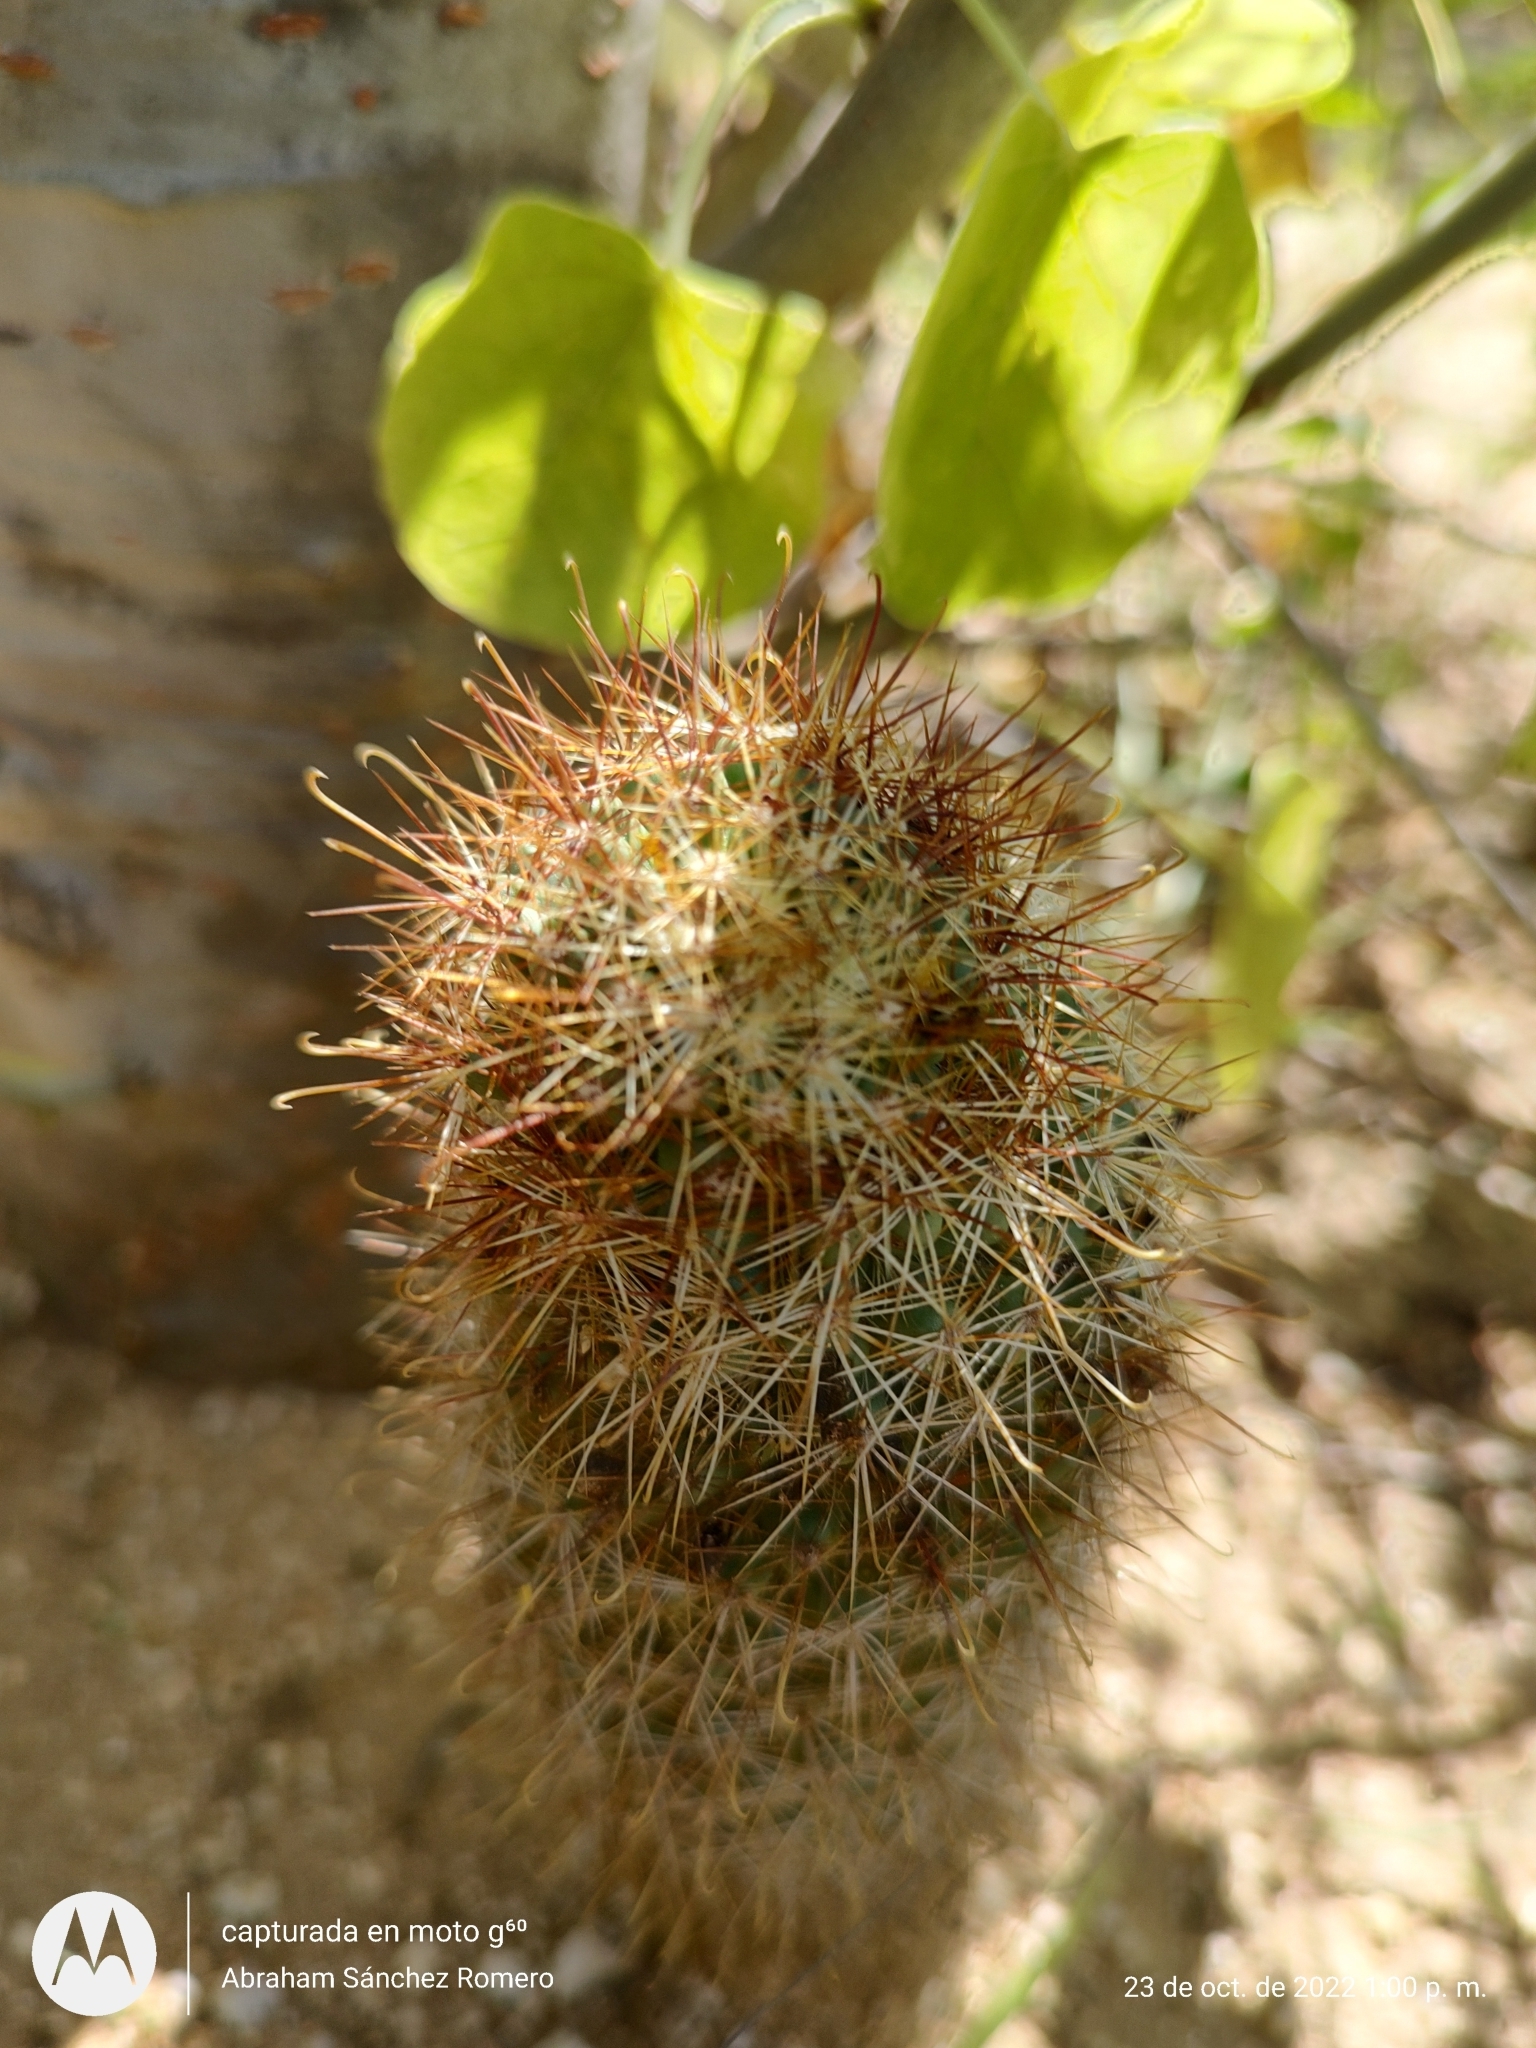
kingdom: Plantae
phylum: Tracheophyta
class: Magnoliopsida
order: Caryophyllales
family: Cactaceae
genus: Cochemiea
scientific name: Cochemiea armillata
